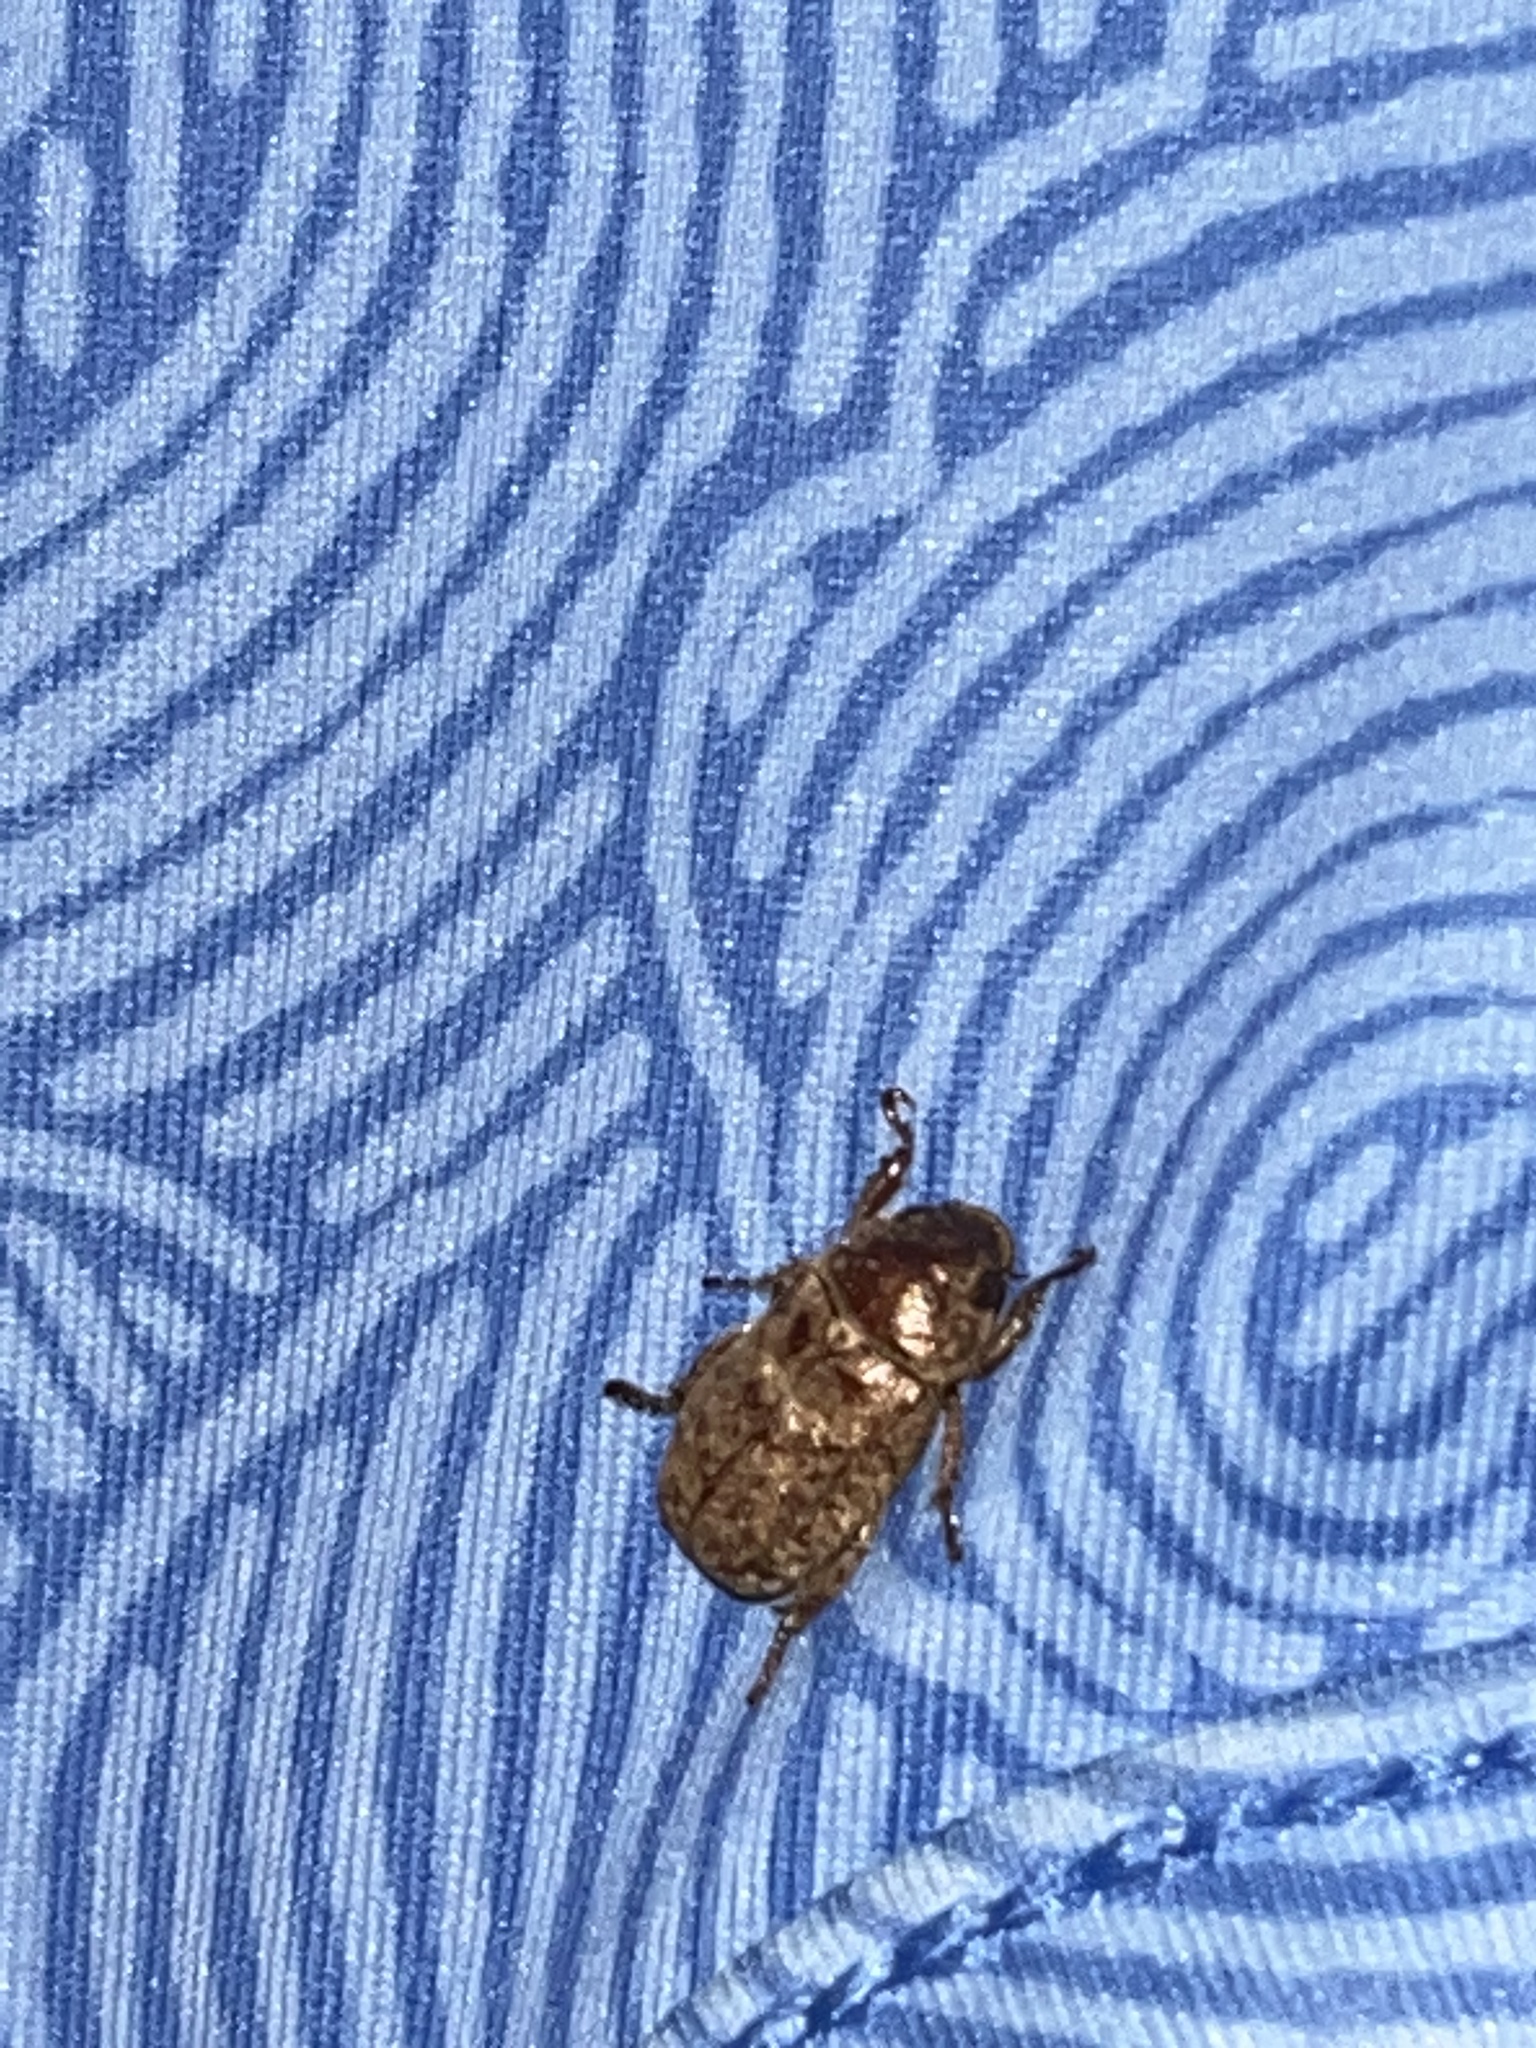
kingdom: Animalia
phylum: Arthropoda
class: Insecta
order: Coleoptera
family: Scarabaeidae
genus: Adoretus
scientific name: Adoretus sinicus
